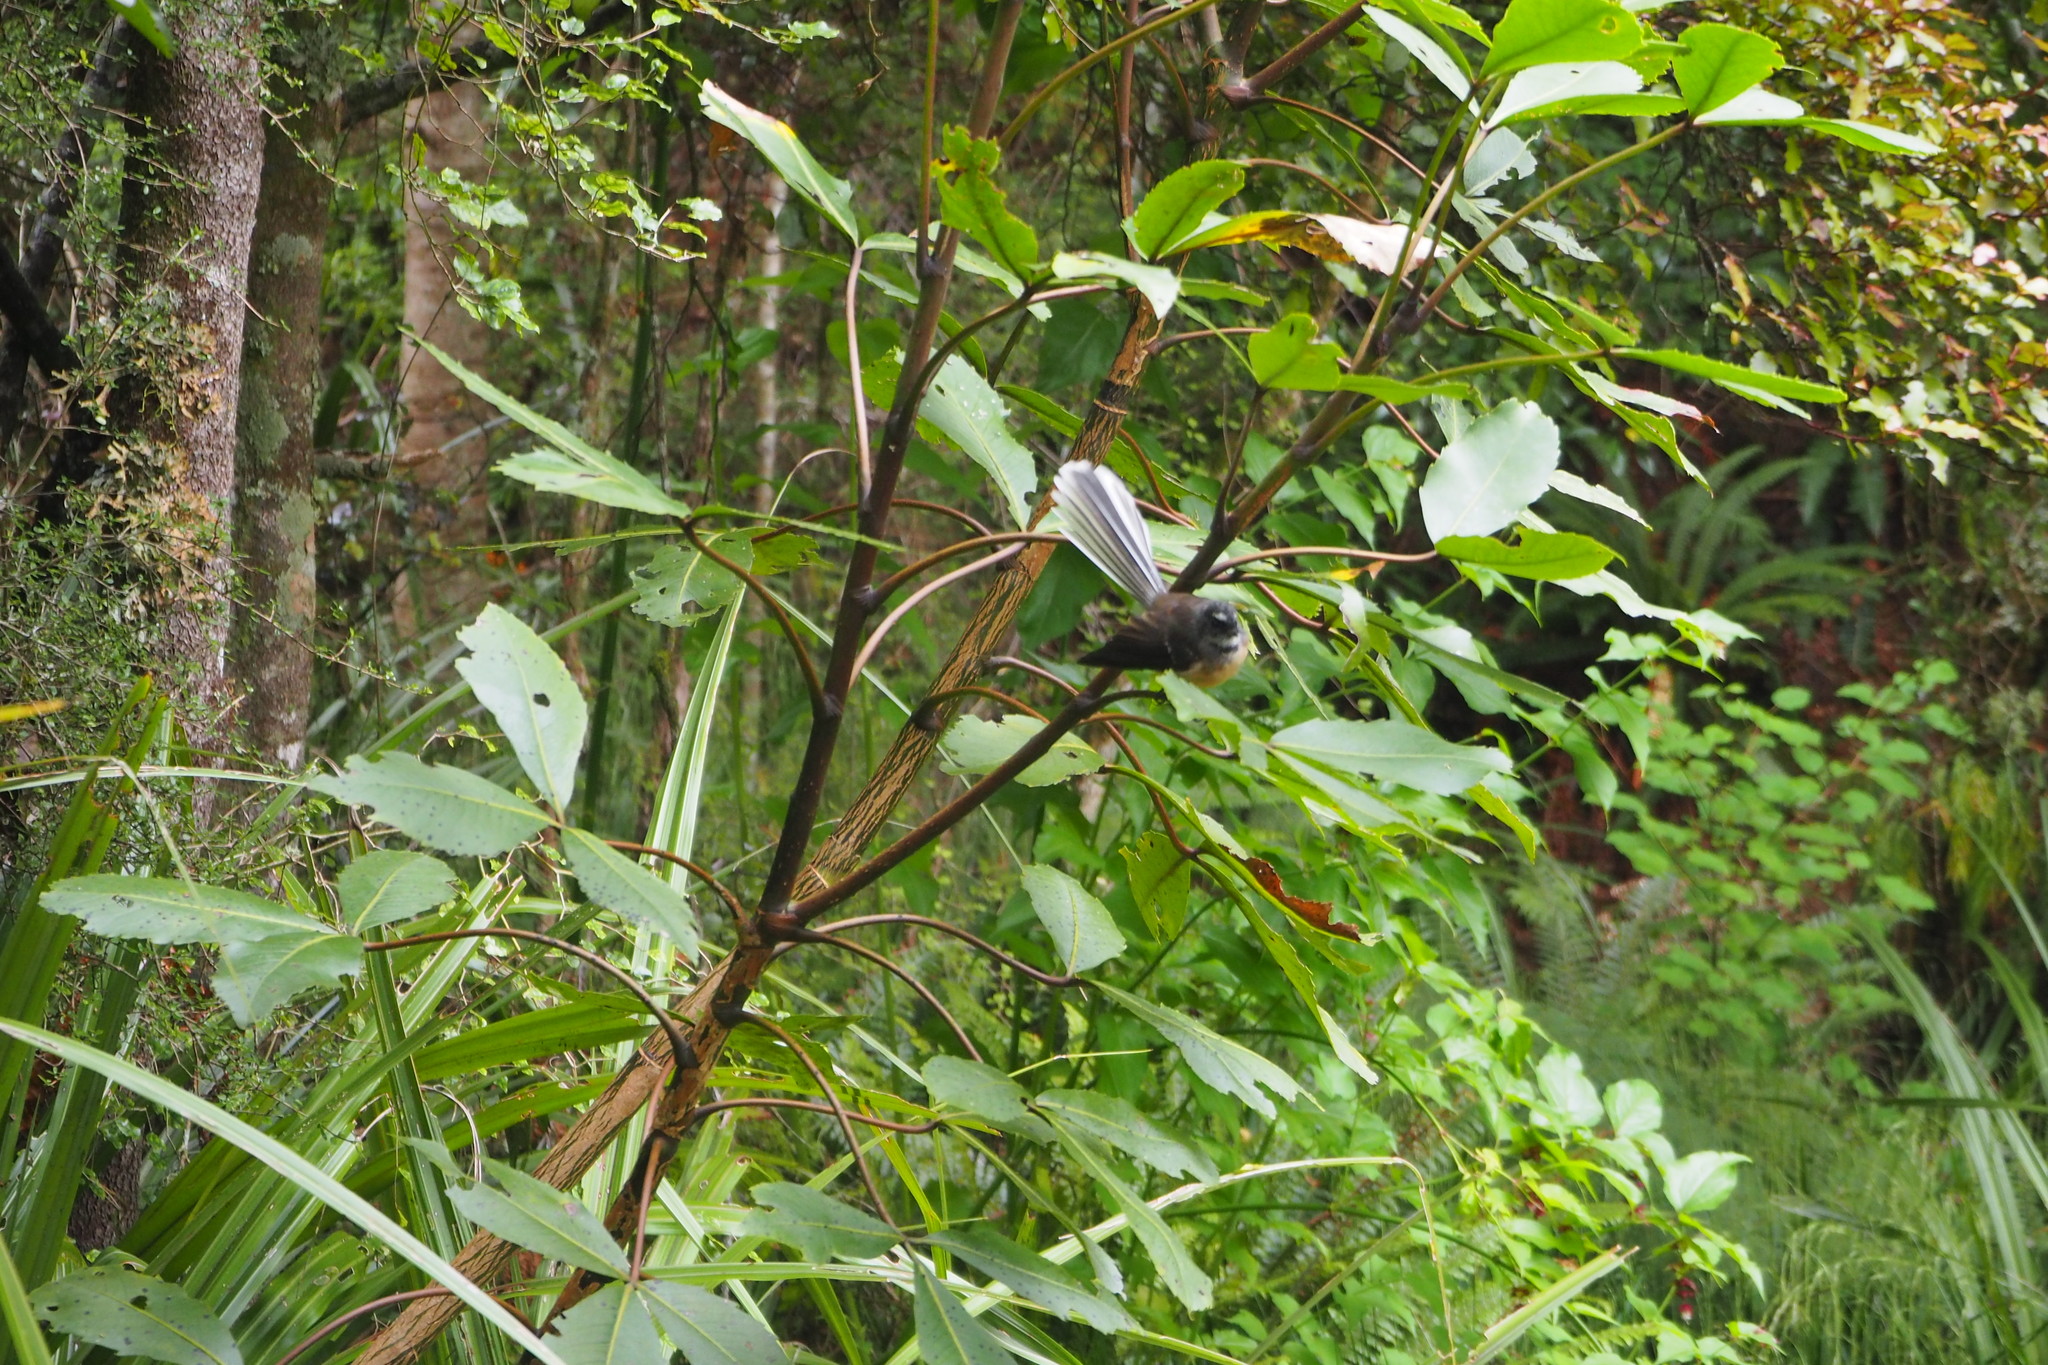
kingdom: Animalia
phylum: Chordata
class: Aves
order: Passeriformes
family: Rhipiduridae
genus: Rhipidura
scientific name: Rhipidura fuliginosa
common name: New zealand fantail
